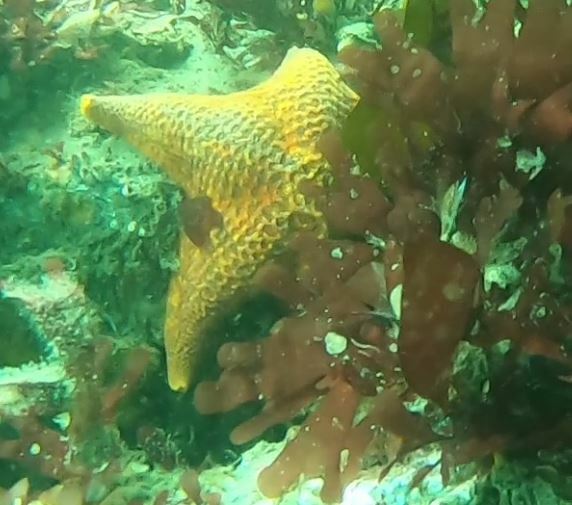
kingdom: Animalia
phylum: Echinodermata
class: Asteroidea
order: Valvatida
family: Asterinidae
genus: Patiria
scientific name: Patiria miniata
